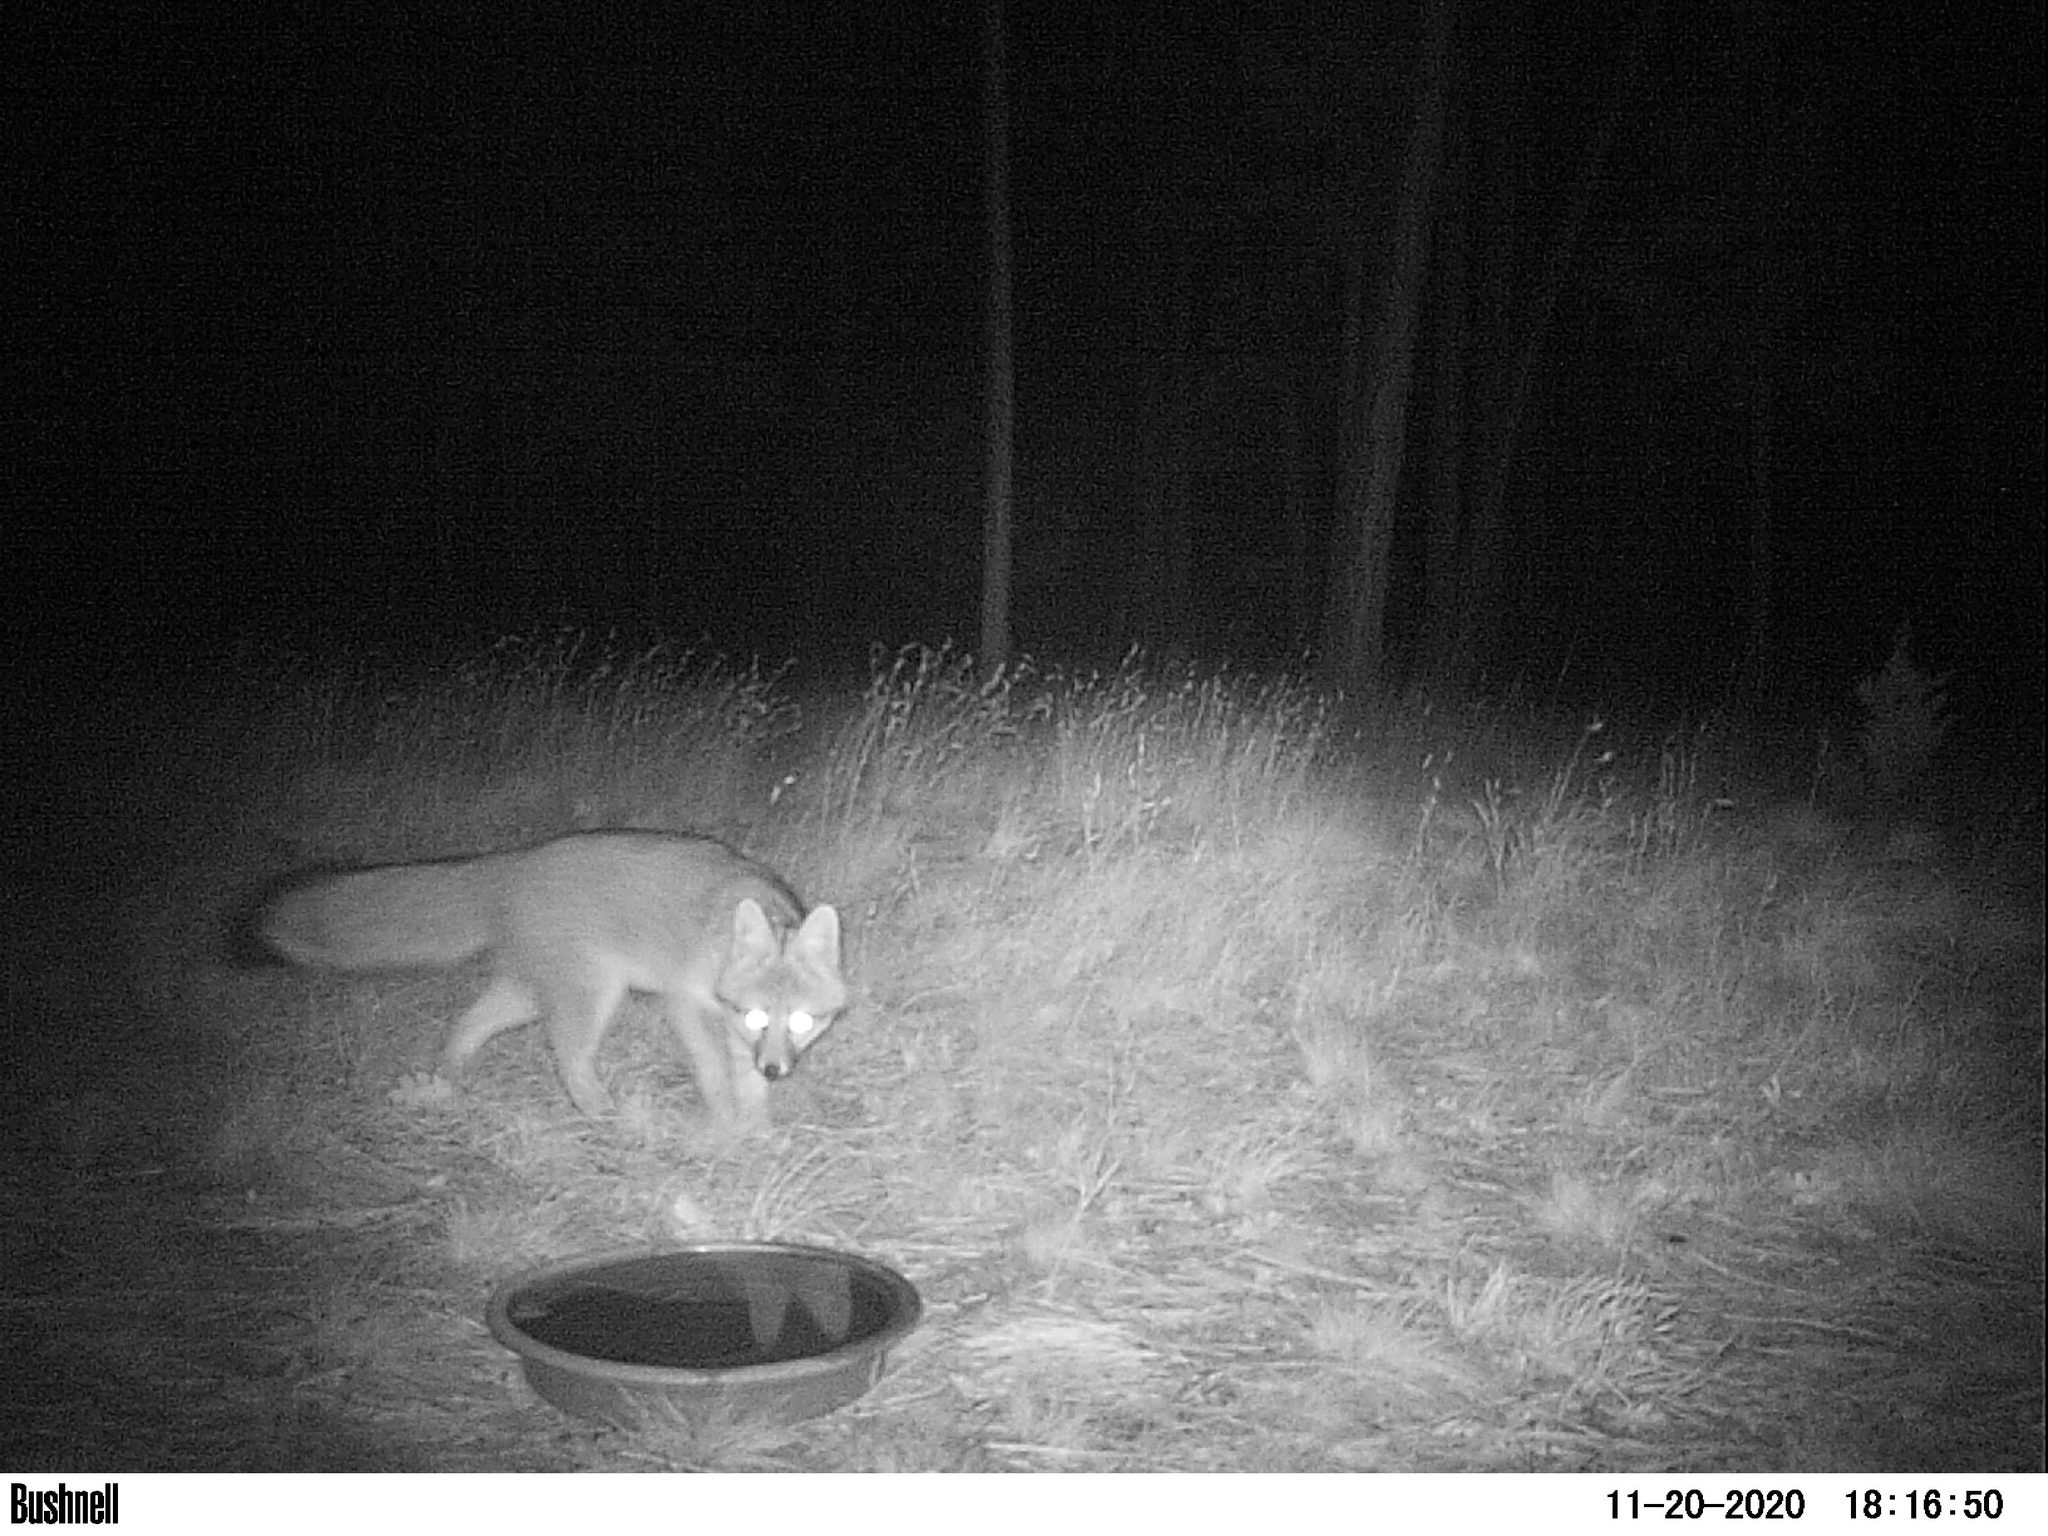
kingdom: Animalia
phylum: Chordata
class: Mammalia
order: Carnivora
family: Canidae
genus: Urocyon
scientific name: Urocyon cinereoargenteus
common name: Gray fox
